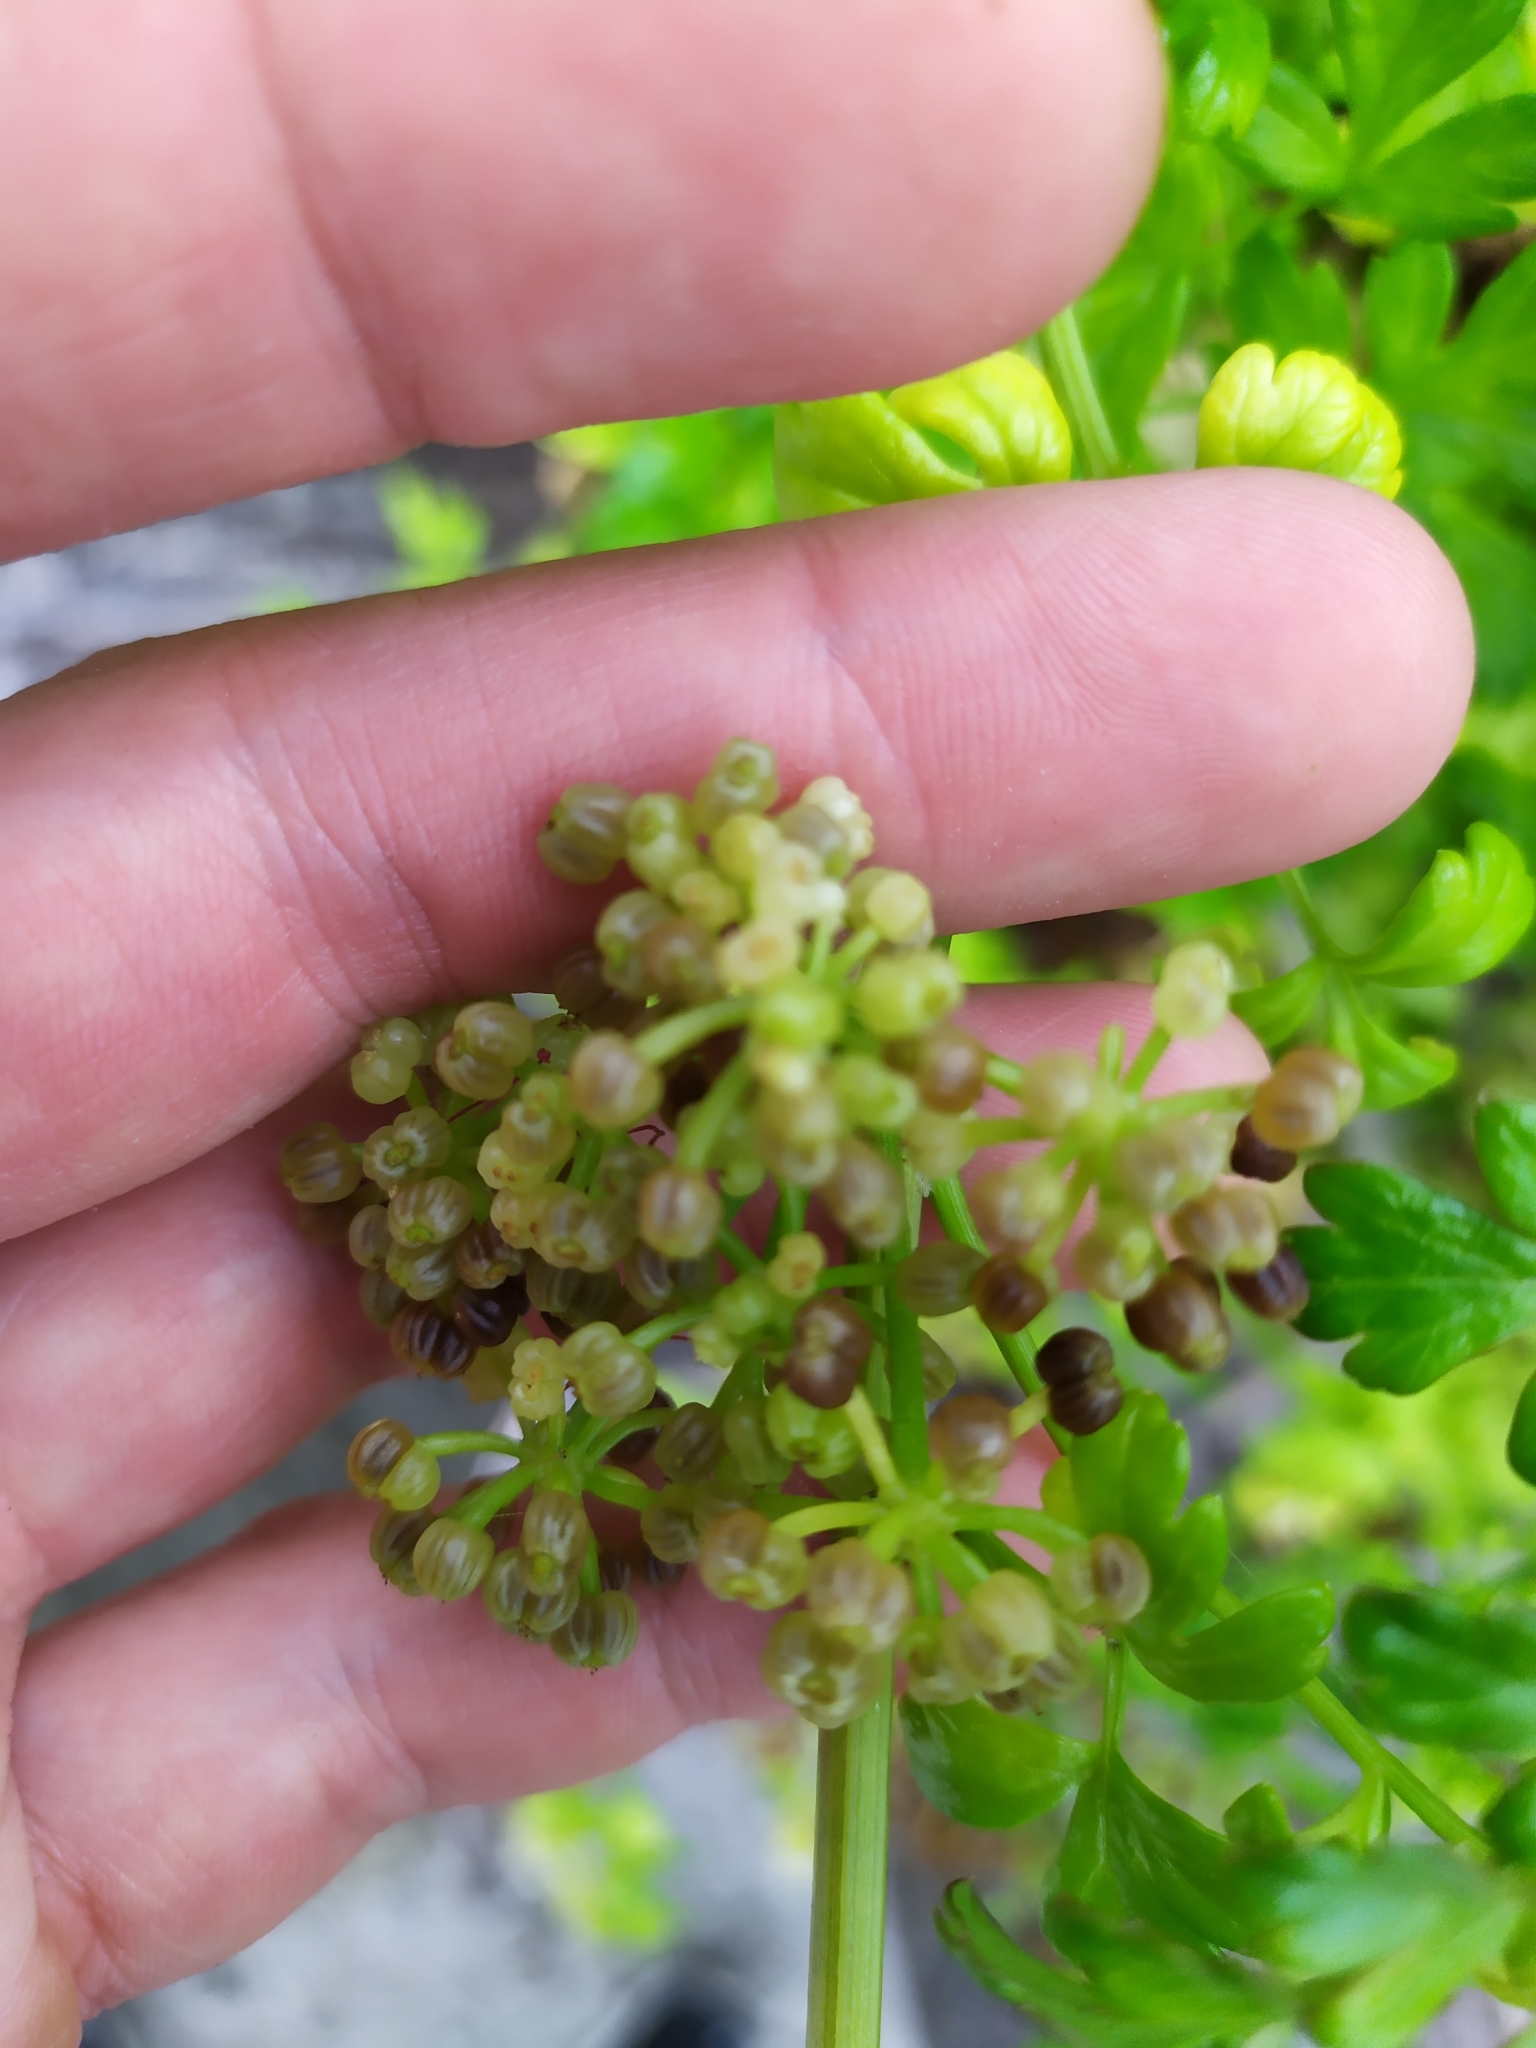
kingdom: Plantae
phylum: Tracheophyta
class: Magnoliopsida
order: Apiales
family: Apiaceae
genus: Apium
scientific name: Apium prostratum
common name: Prostrate marshwort
